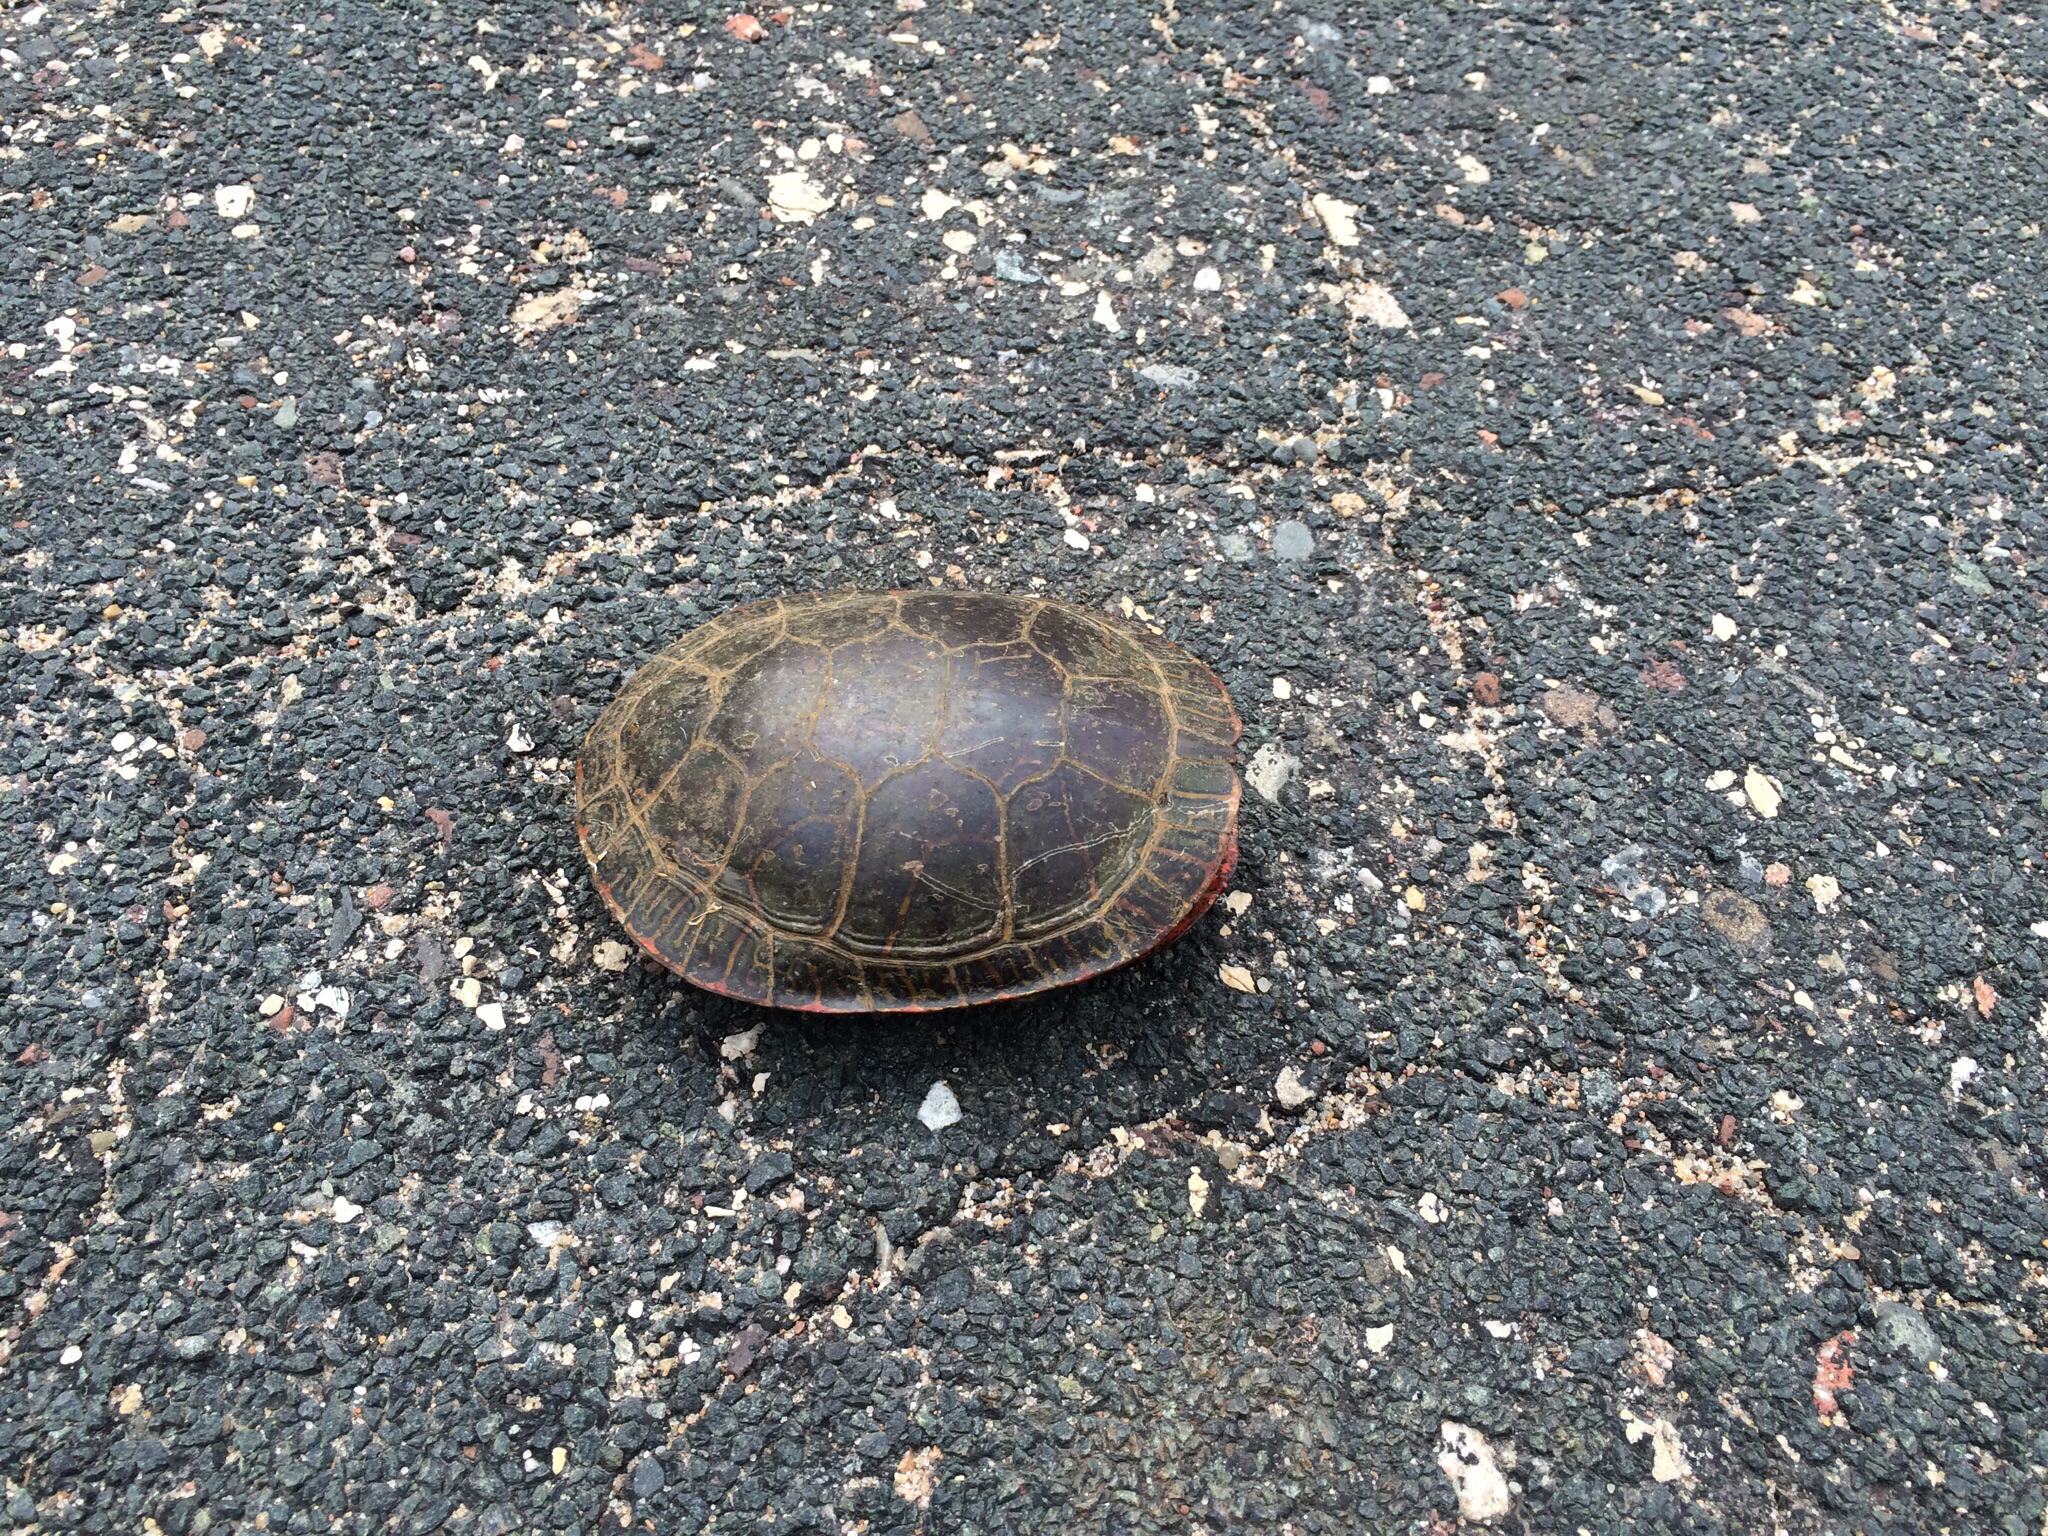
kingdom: Animalia
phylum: Chordata
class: Testudines
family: Emydidae
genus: Chrysemys
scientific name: Chrysemys picta
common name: Painted turtle
